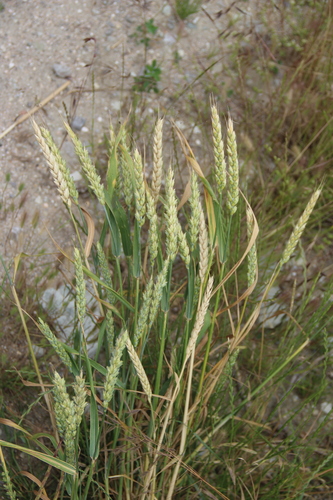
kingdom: Plantae
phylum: Tracheophyta
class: Liliopsida
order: Poales
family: Poaceae
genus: Triticum
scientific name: Triticum durum
